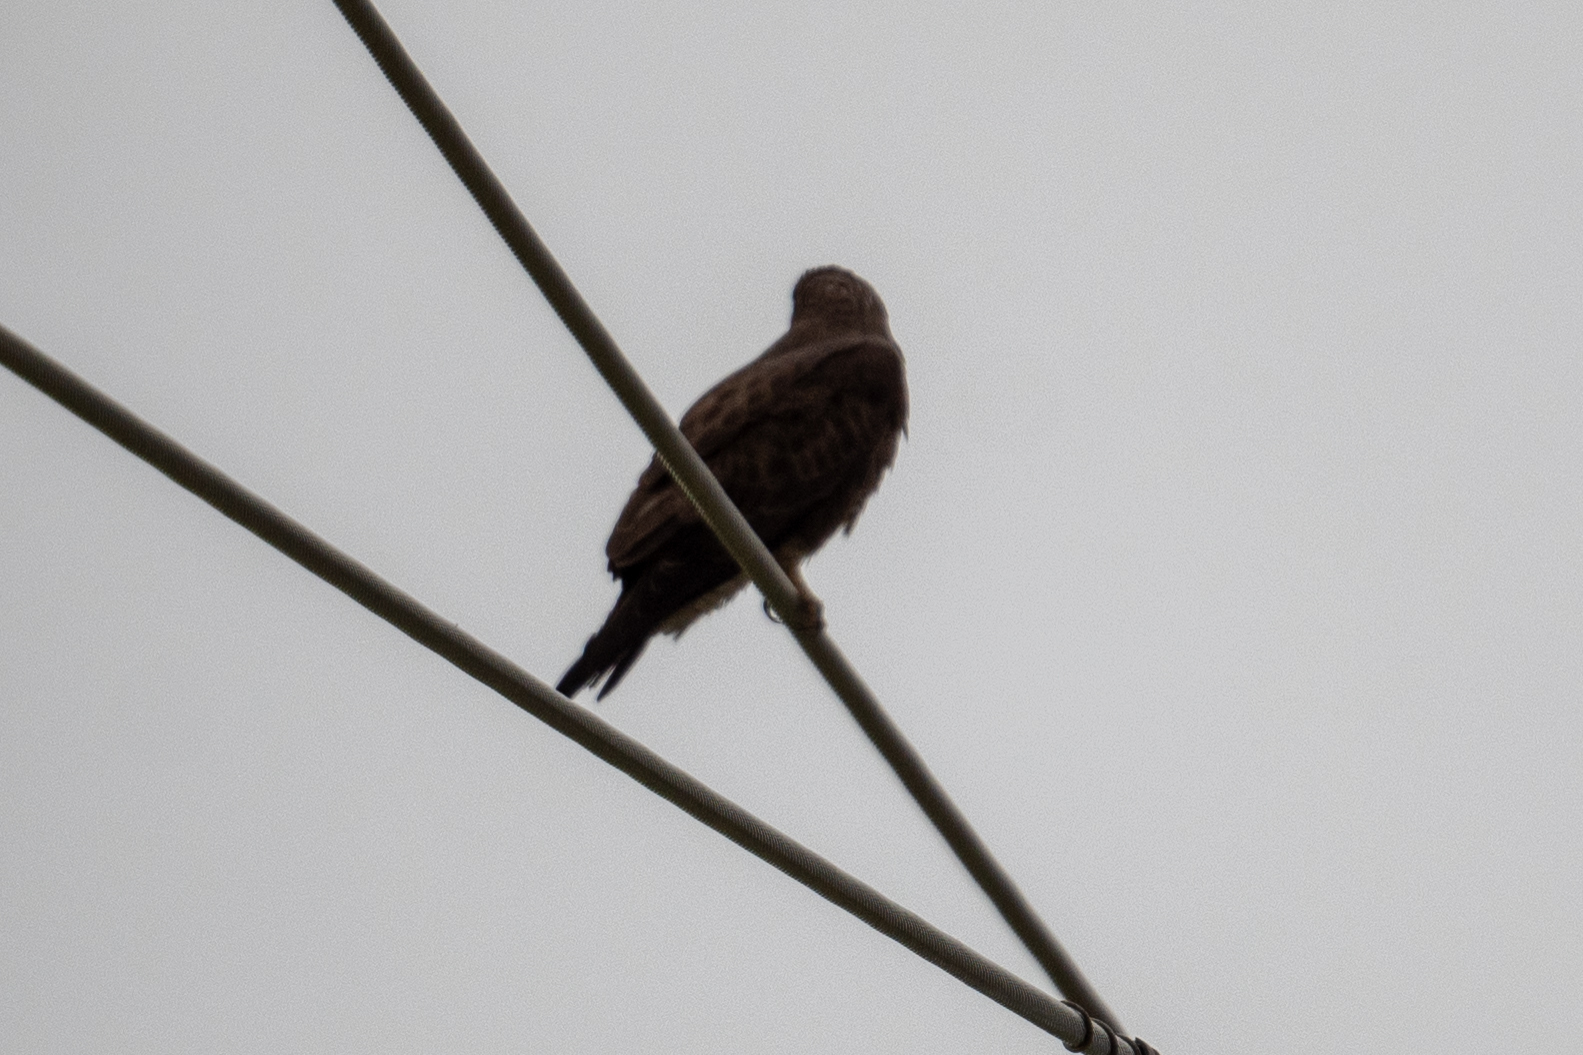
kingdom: Animalia
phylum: Chordata
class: Aves
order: Accipitriformes
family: Accipitridae
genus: Buteo
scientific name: Buteo swainsoni
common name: Swainson's hawk
